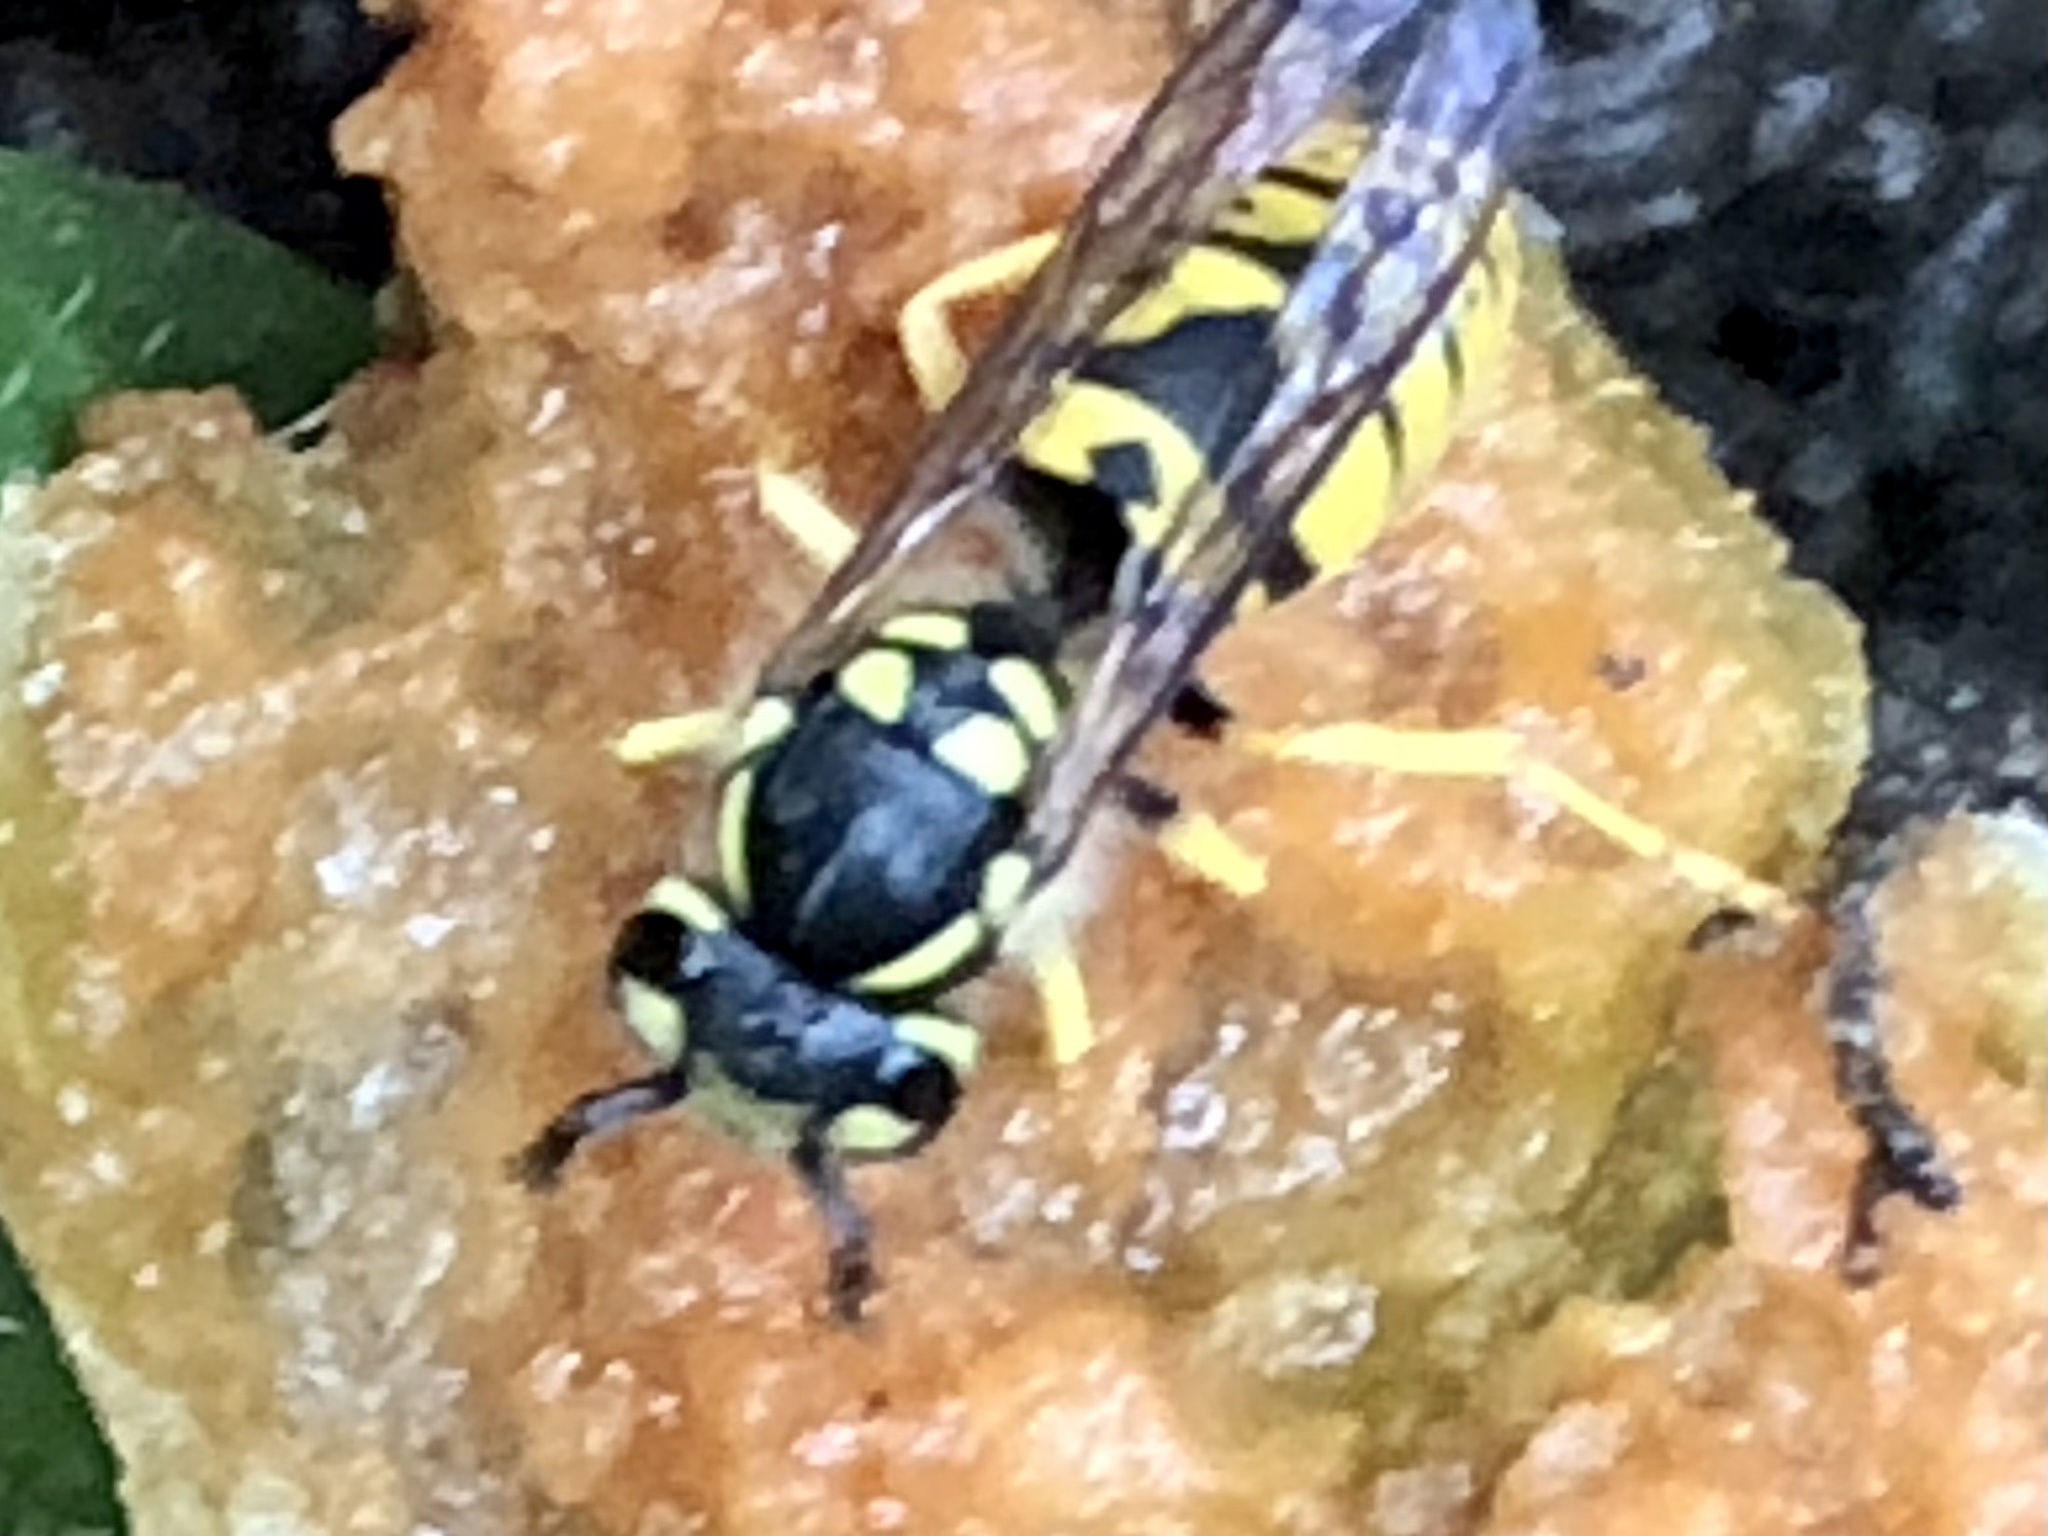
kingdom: Animalia
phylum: Arthropoda
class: Insecta
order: Hymenoptera
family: Vespidae
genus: Vespula
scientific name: Vespula germanica
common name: German wasp
